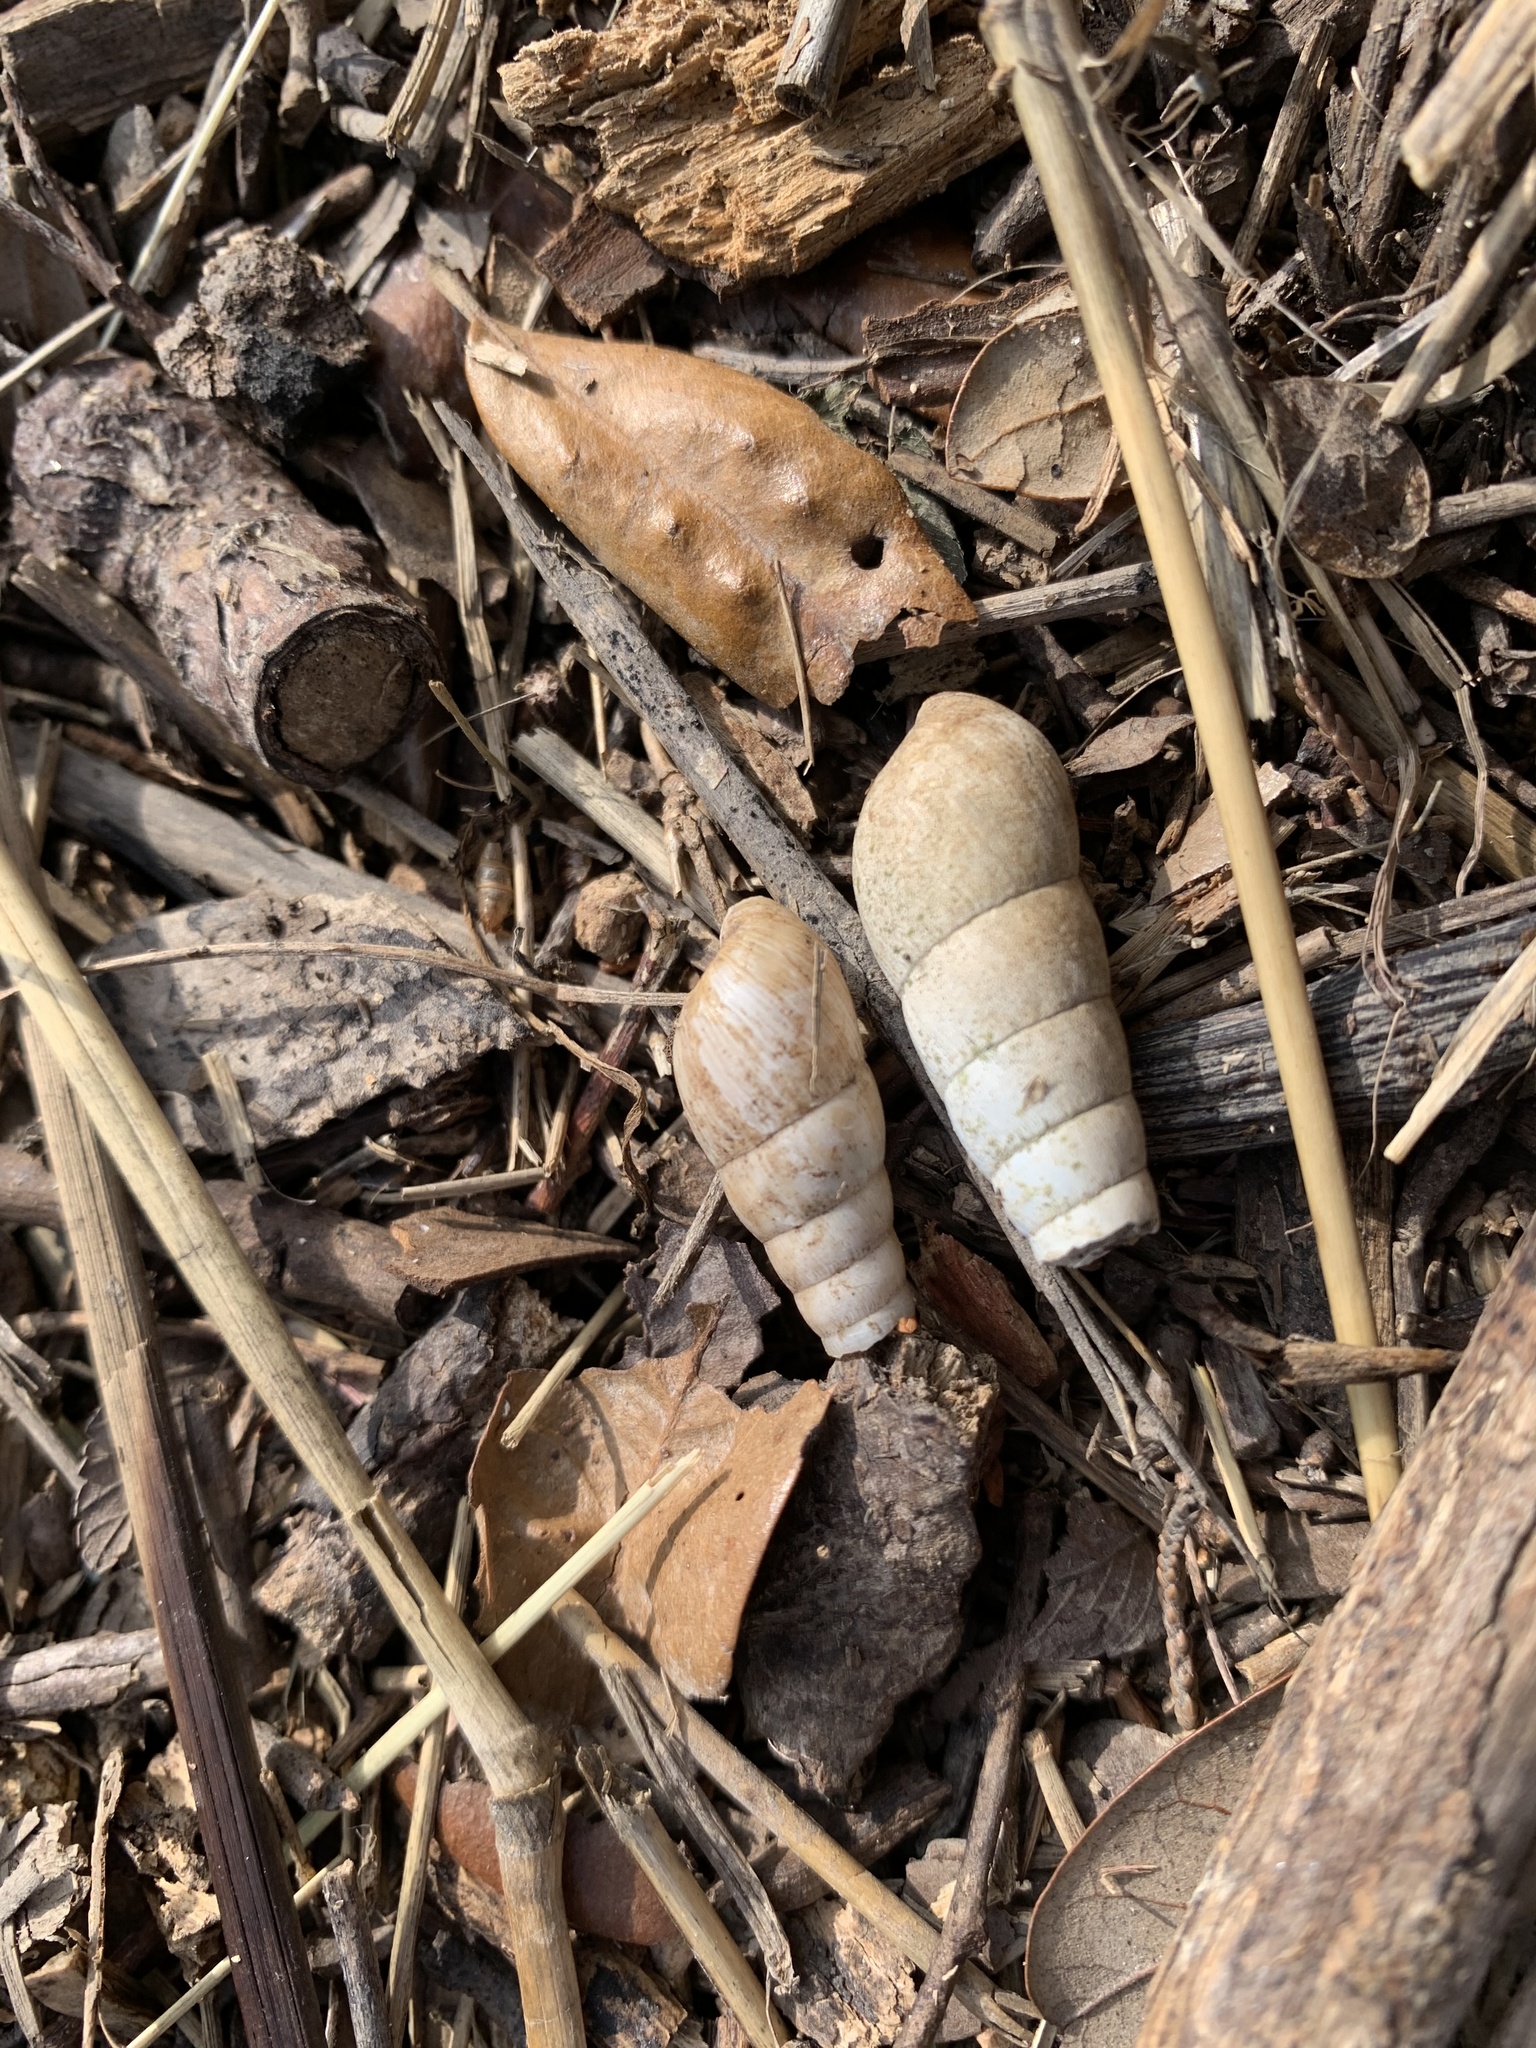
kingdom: Animalia
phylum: Mollusca
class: Gastropoda
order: Stylommatophora
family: Achatinidae
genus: Rumina
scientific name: Rumina decollata
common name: Decollate snail
